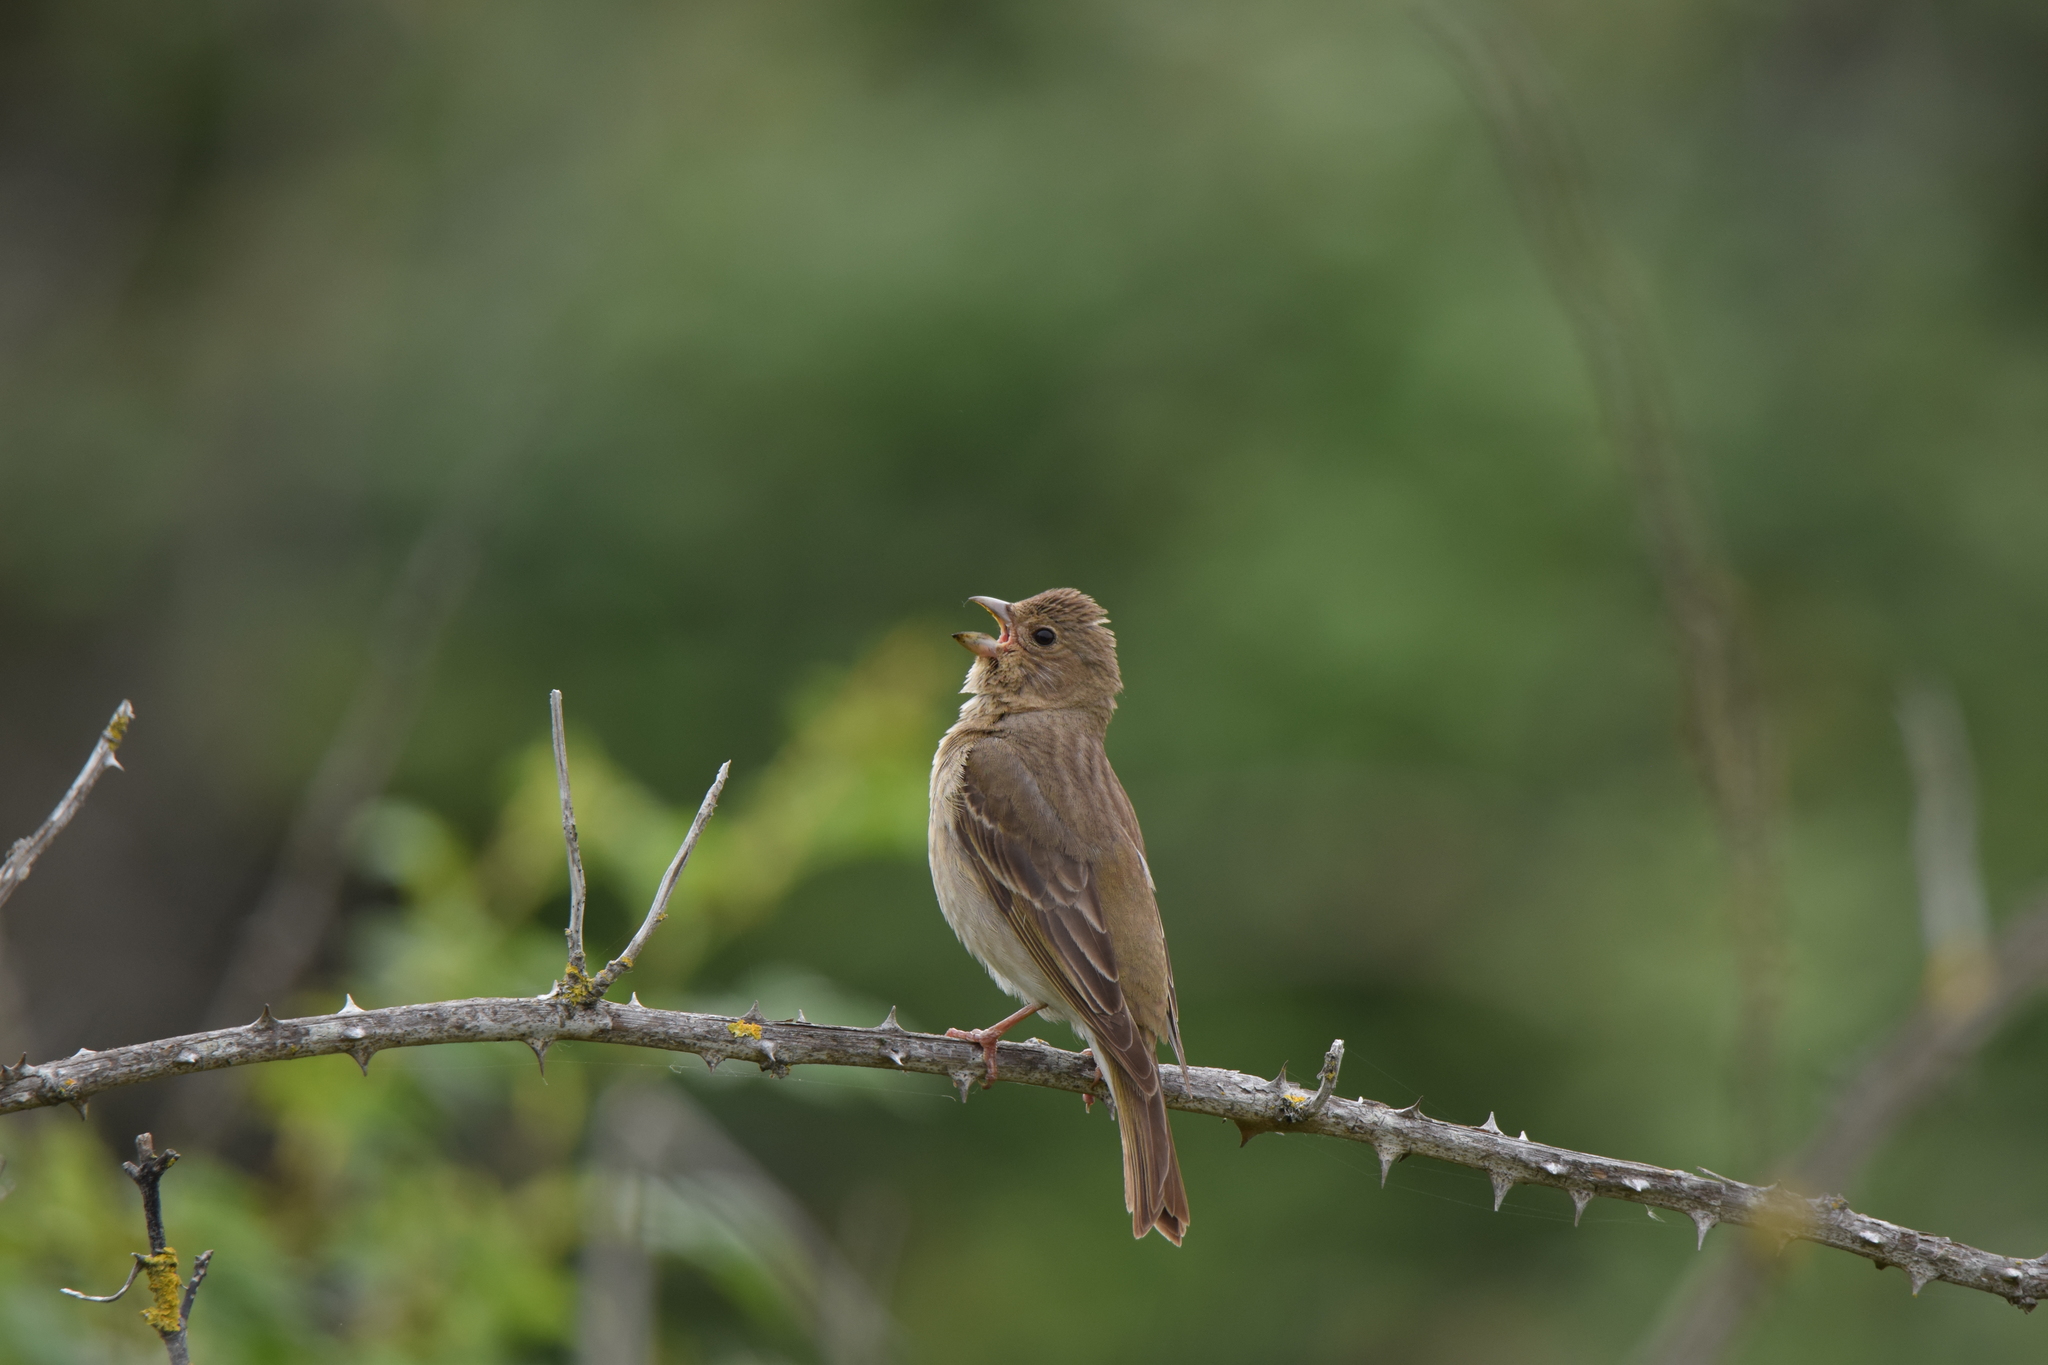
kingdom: Animalia
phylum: Chordata
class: Aves
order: Passeriformes
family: Fringillidae
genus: Carpodacus
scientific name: Carpodacus erythrinus
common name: Common rosefinch
